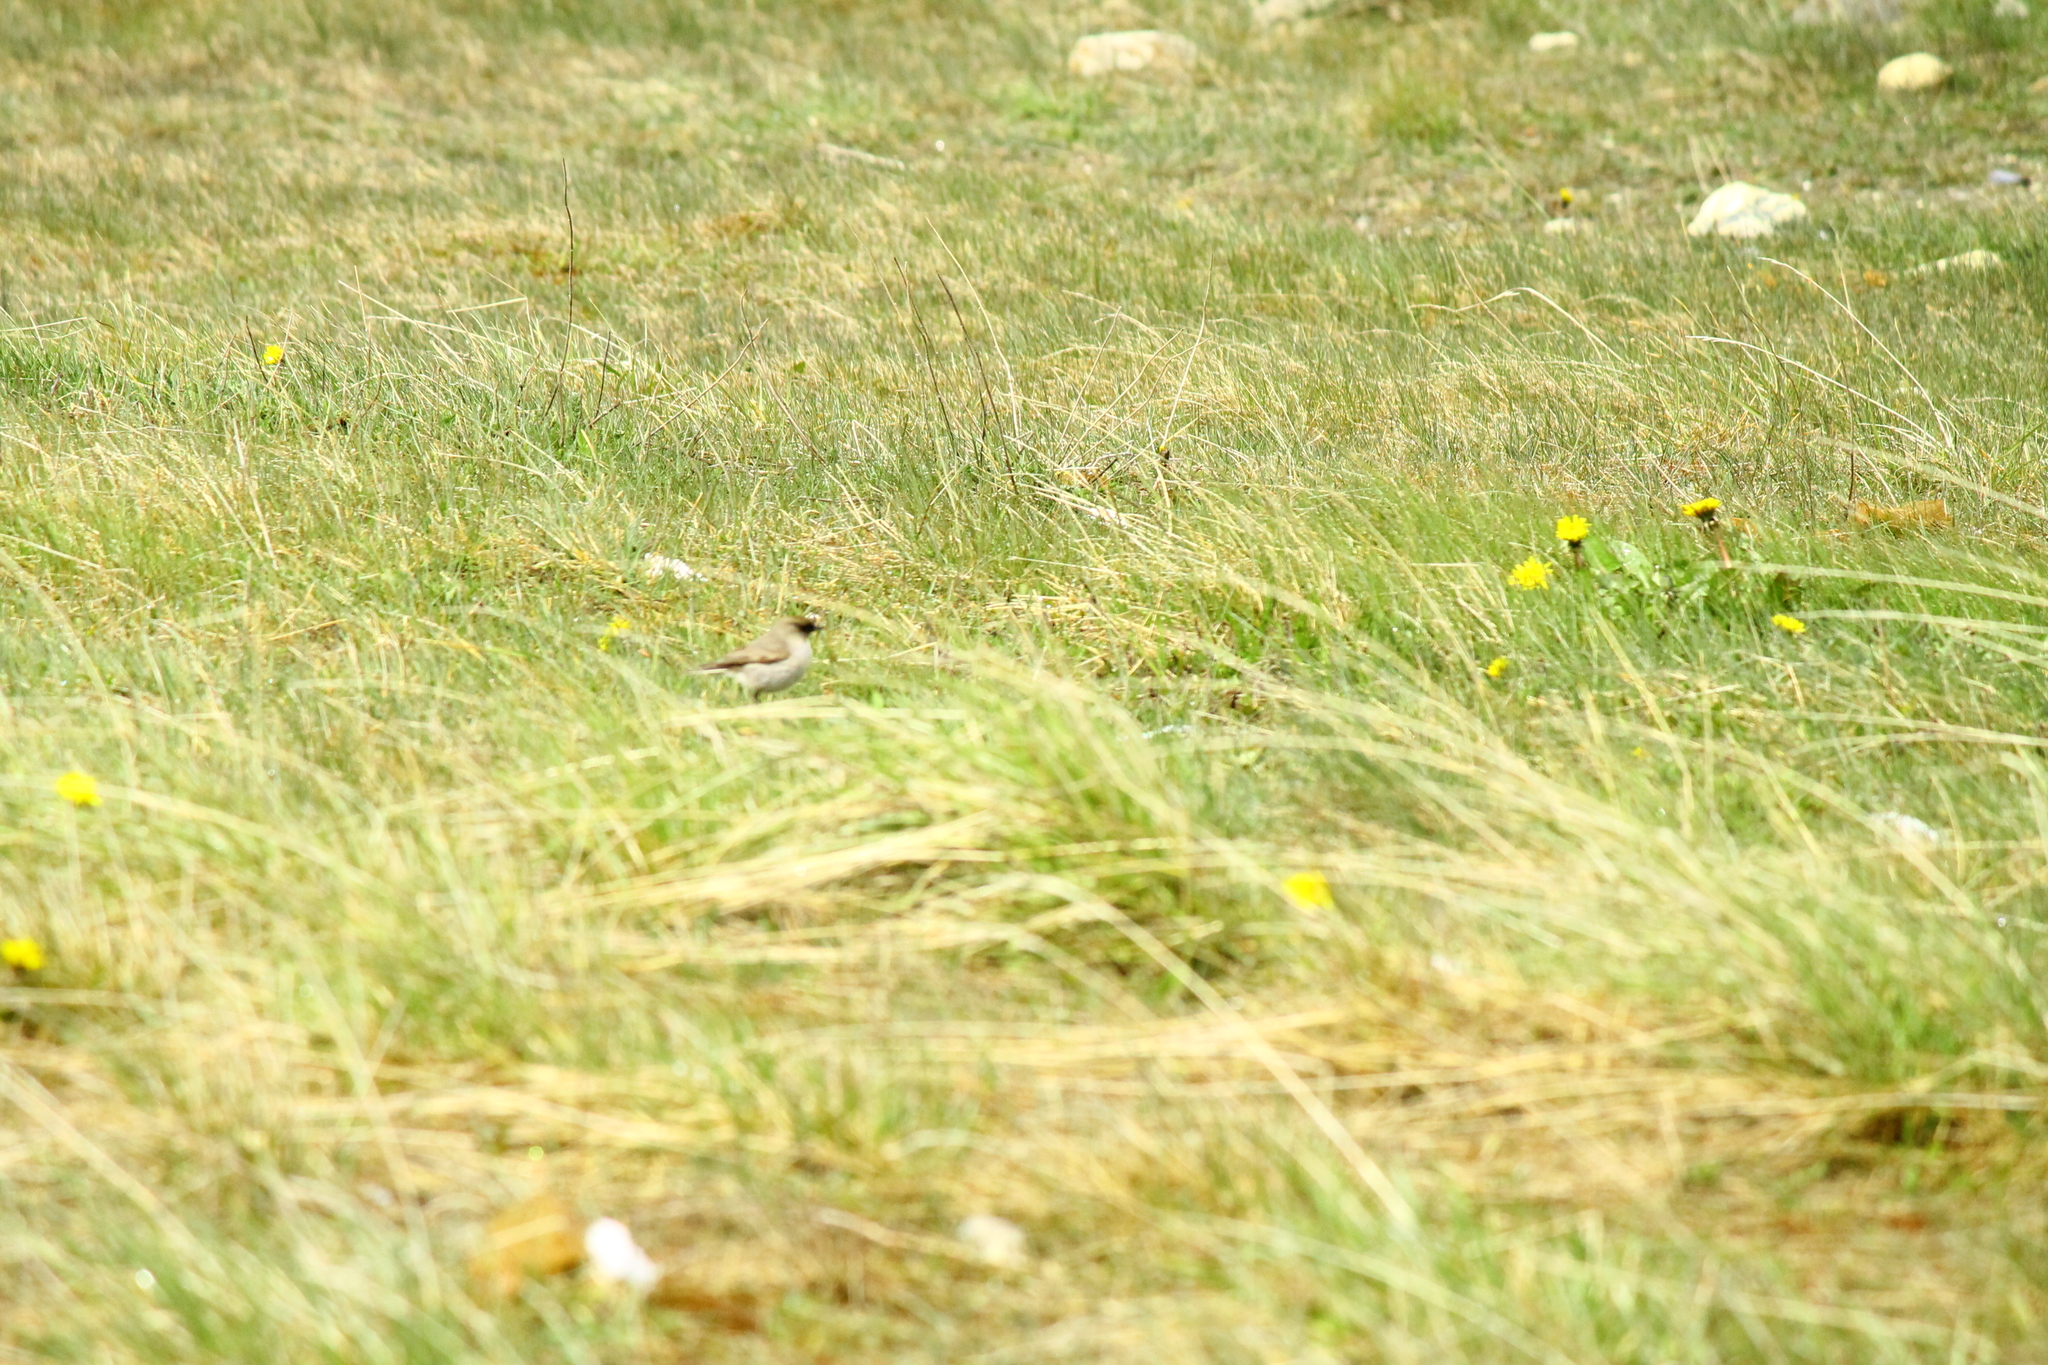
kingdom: Animalia
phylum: Chordata
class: Aves
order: Passeriformes
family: Tyrannidae
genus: Muscisaxicola
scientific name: Muscisaxicola maclovianus
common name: Dark-faced ground tyrant
